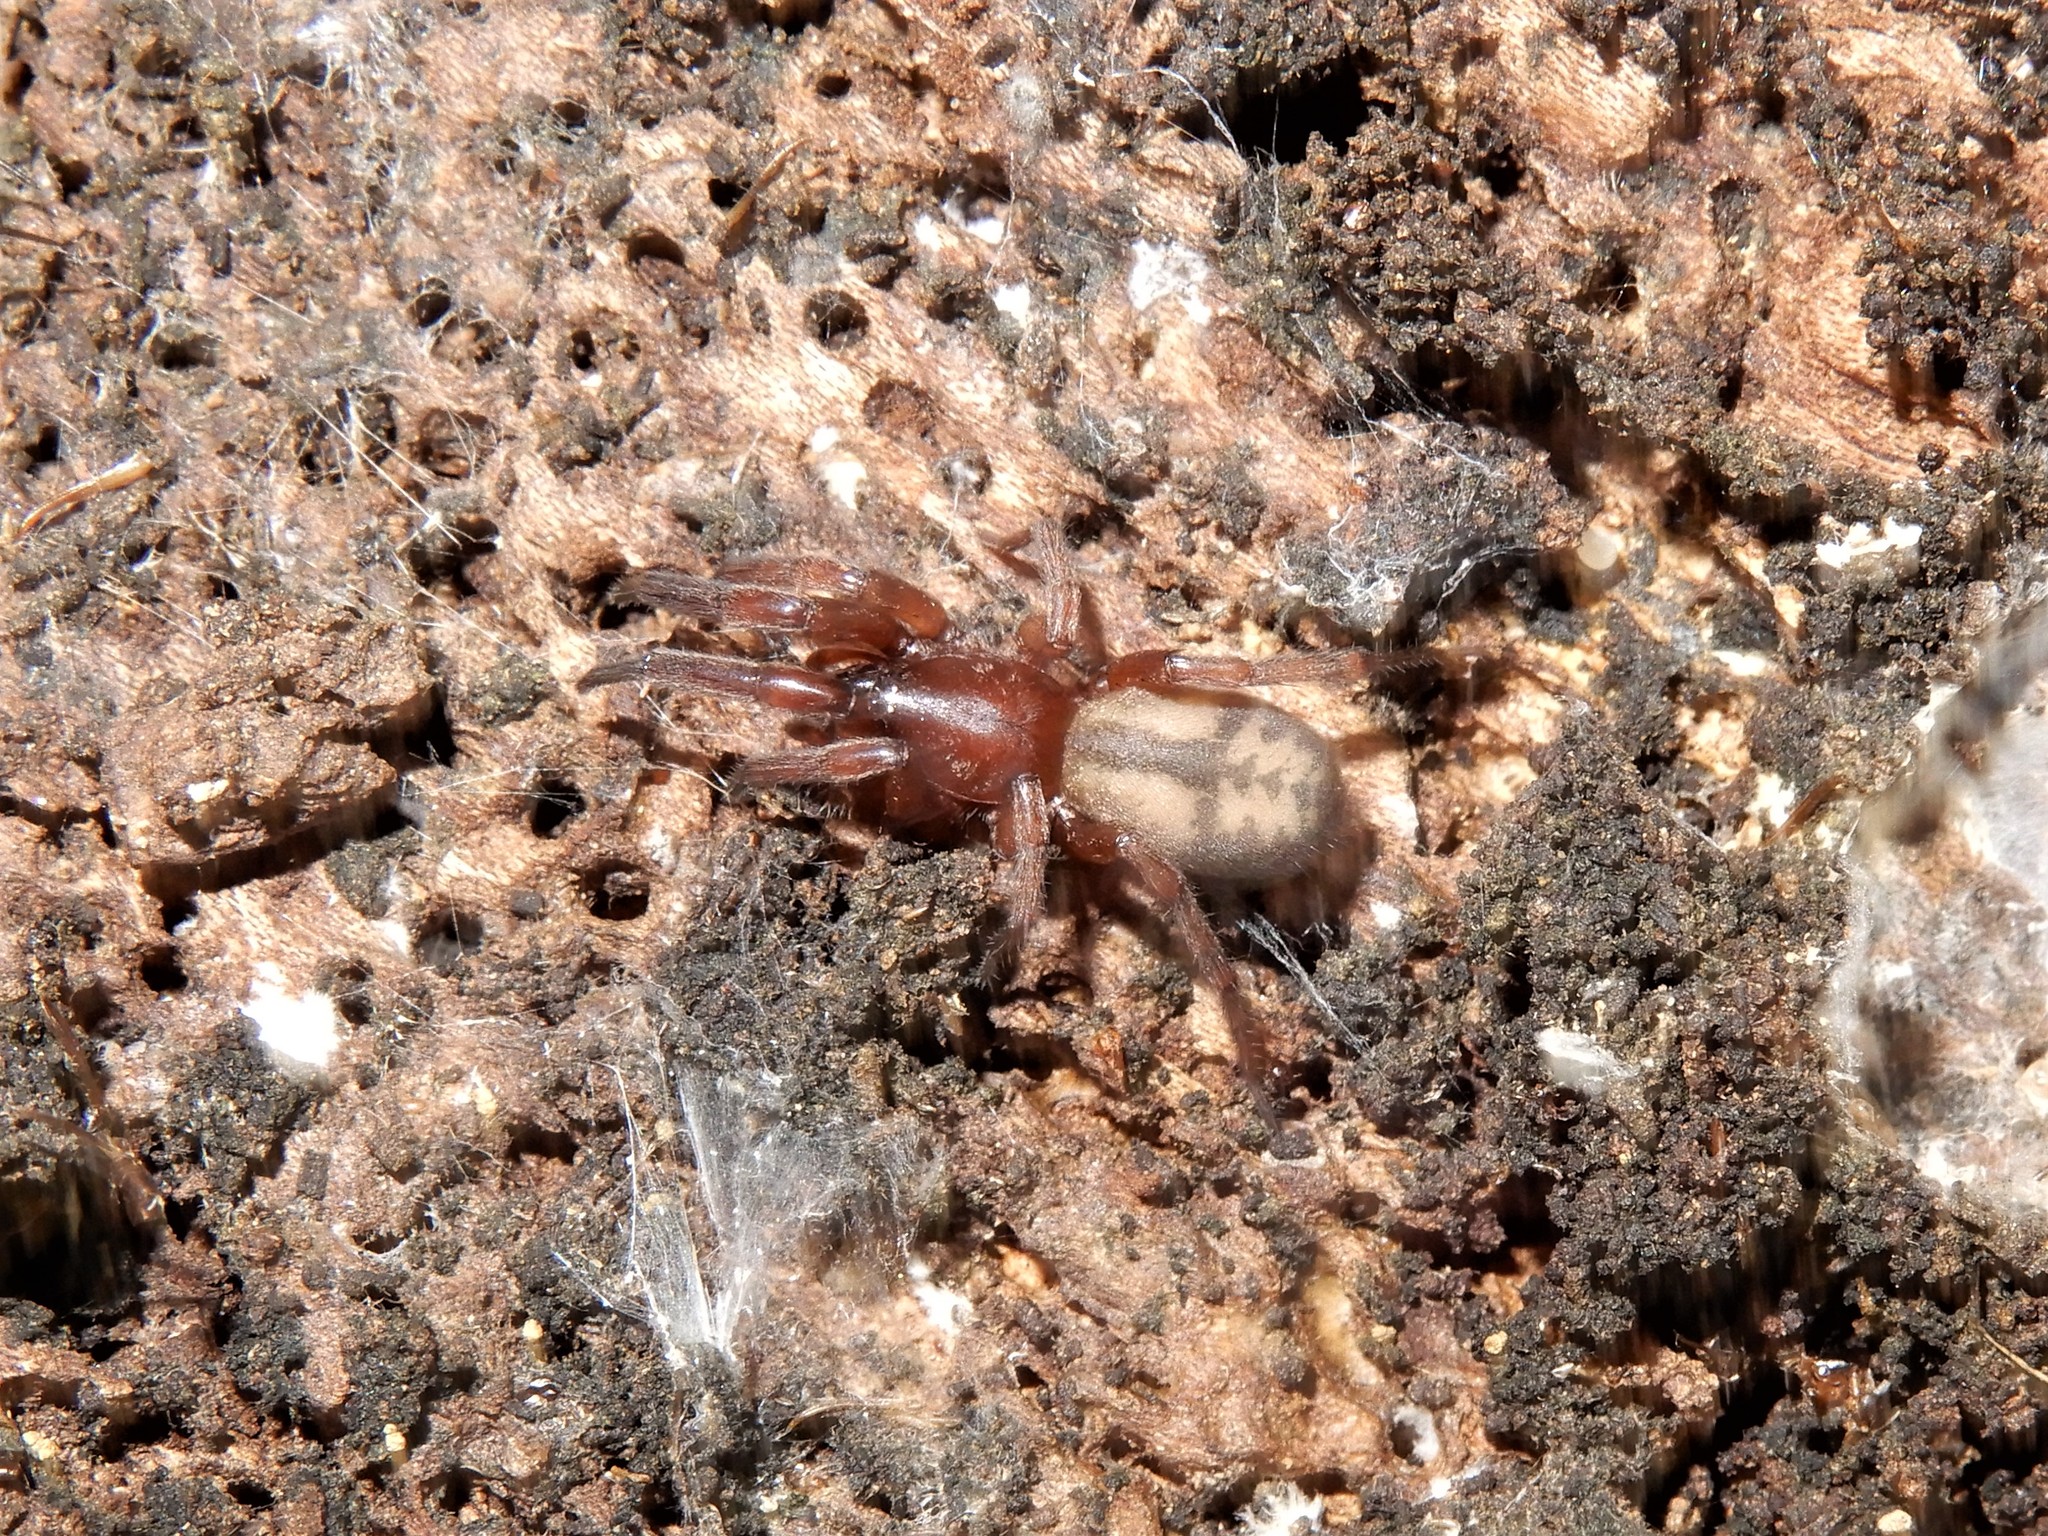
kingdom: Animalia
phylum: Arthropoda
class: Arachnida
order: Araneae
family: Gnaphosidae
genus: Intruda
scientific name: Intruda signata
